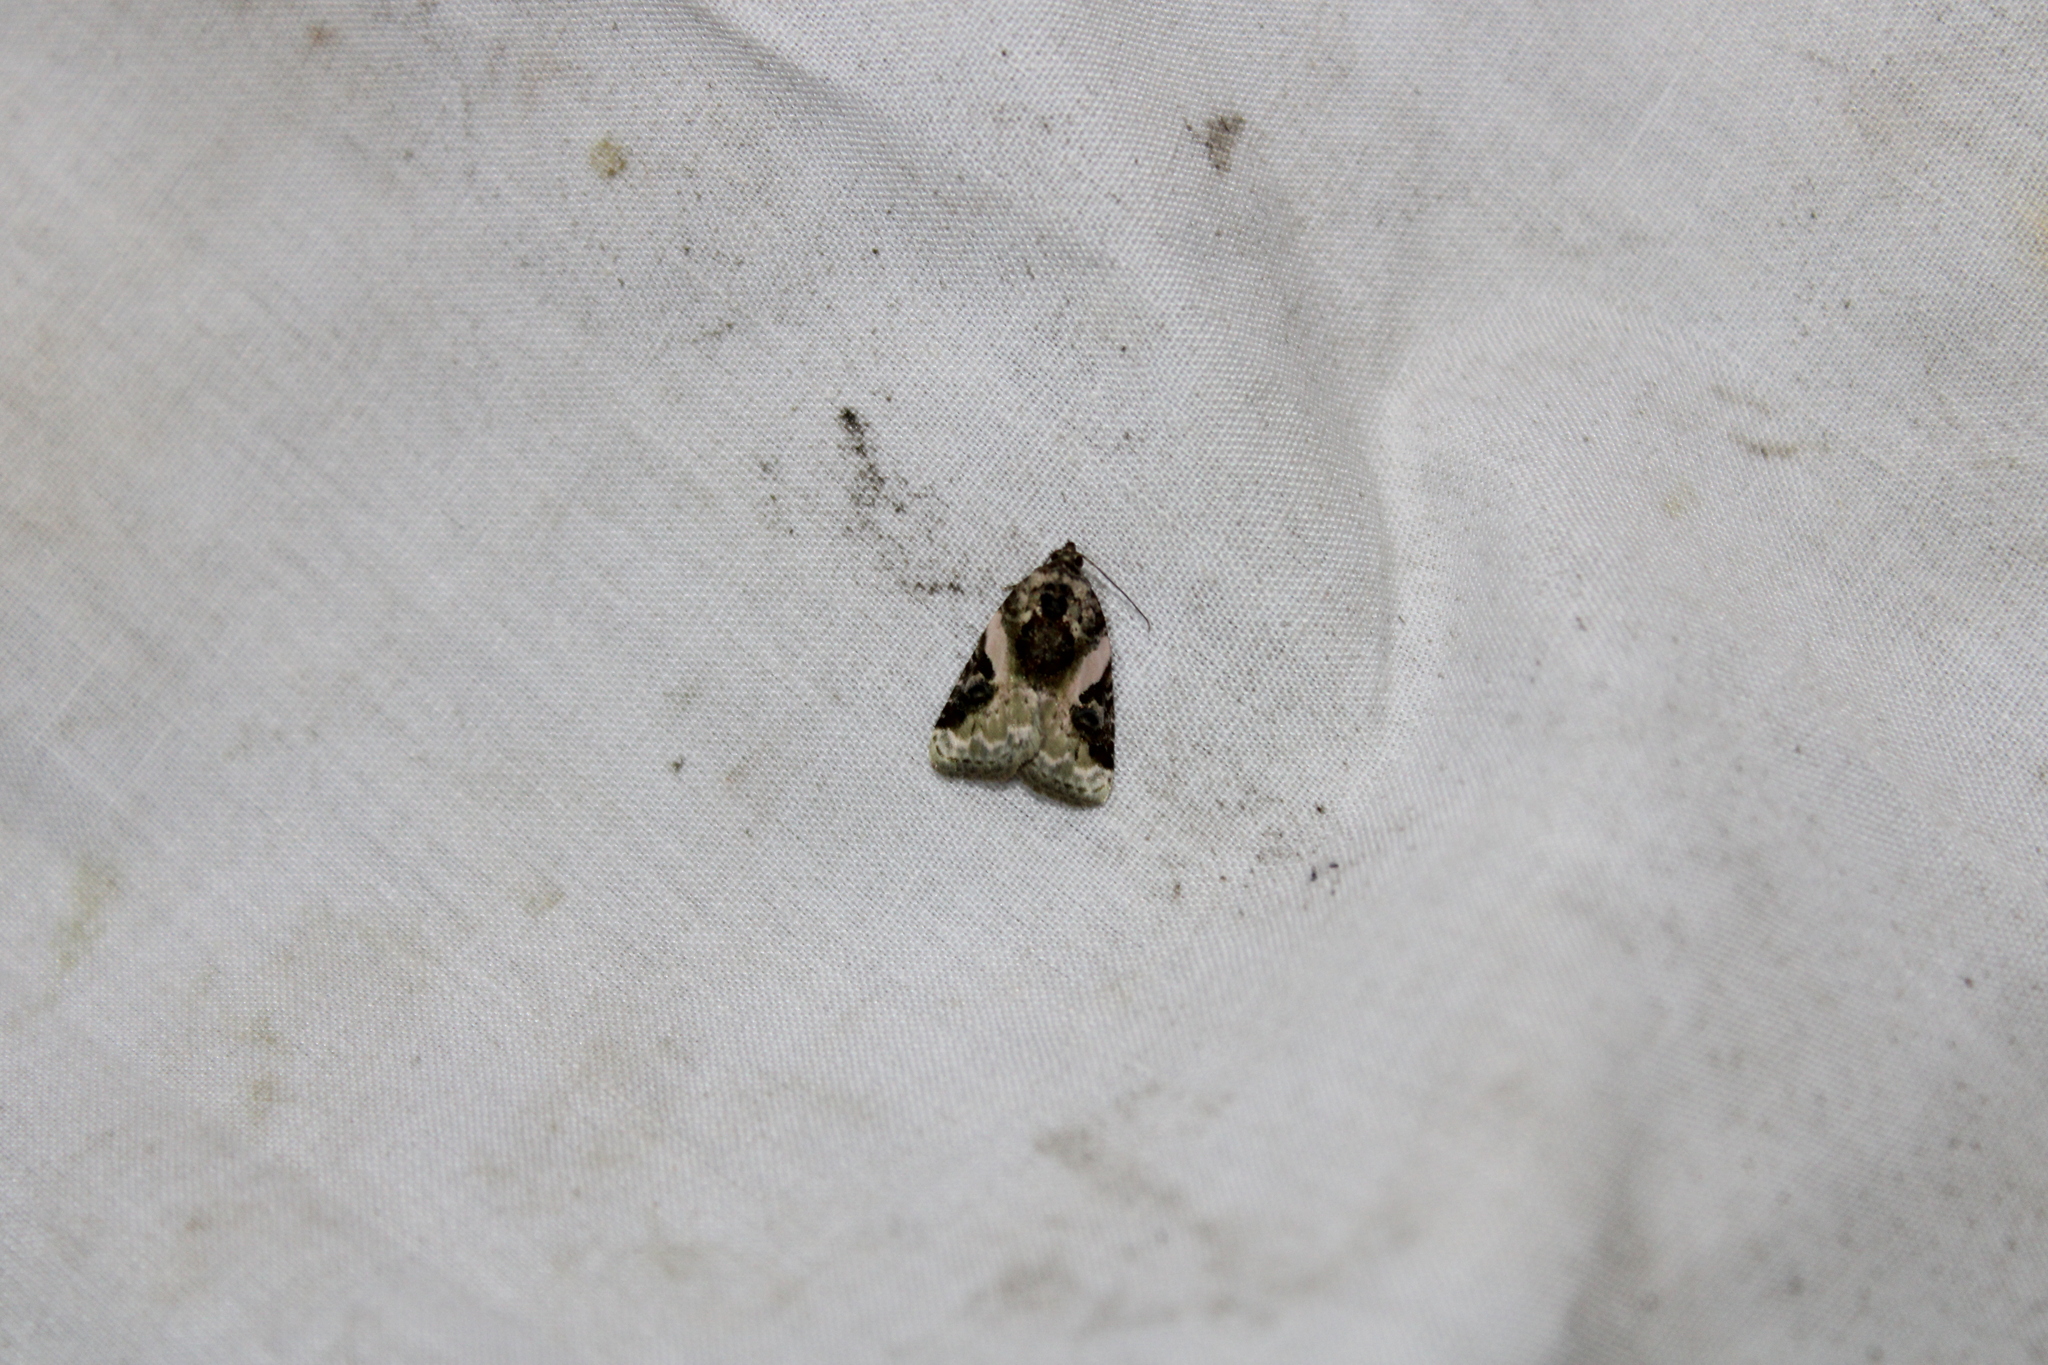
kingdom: Animalia
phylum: Arthropoda
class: Insecta
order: Lepidoptera
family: Noctuidae
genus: Pseudeustrotia
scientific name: Pseudeustrotia carneola
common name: Pink-barred lithacodia moth
